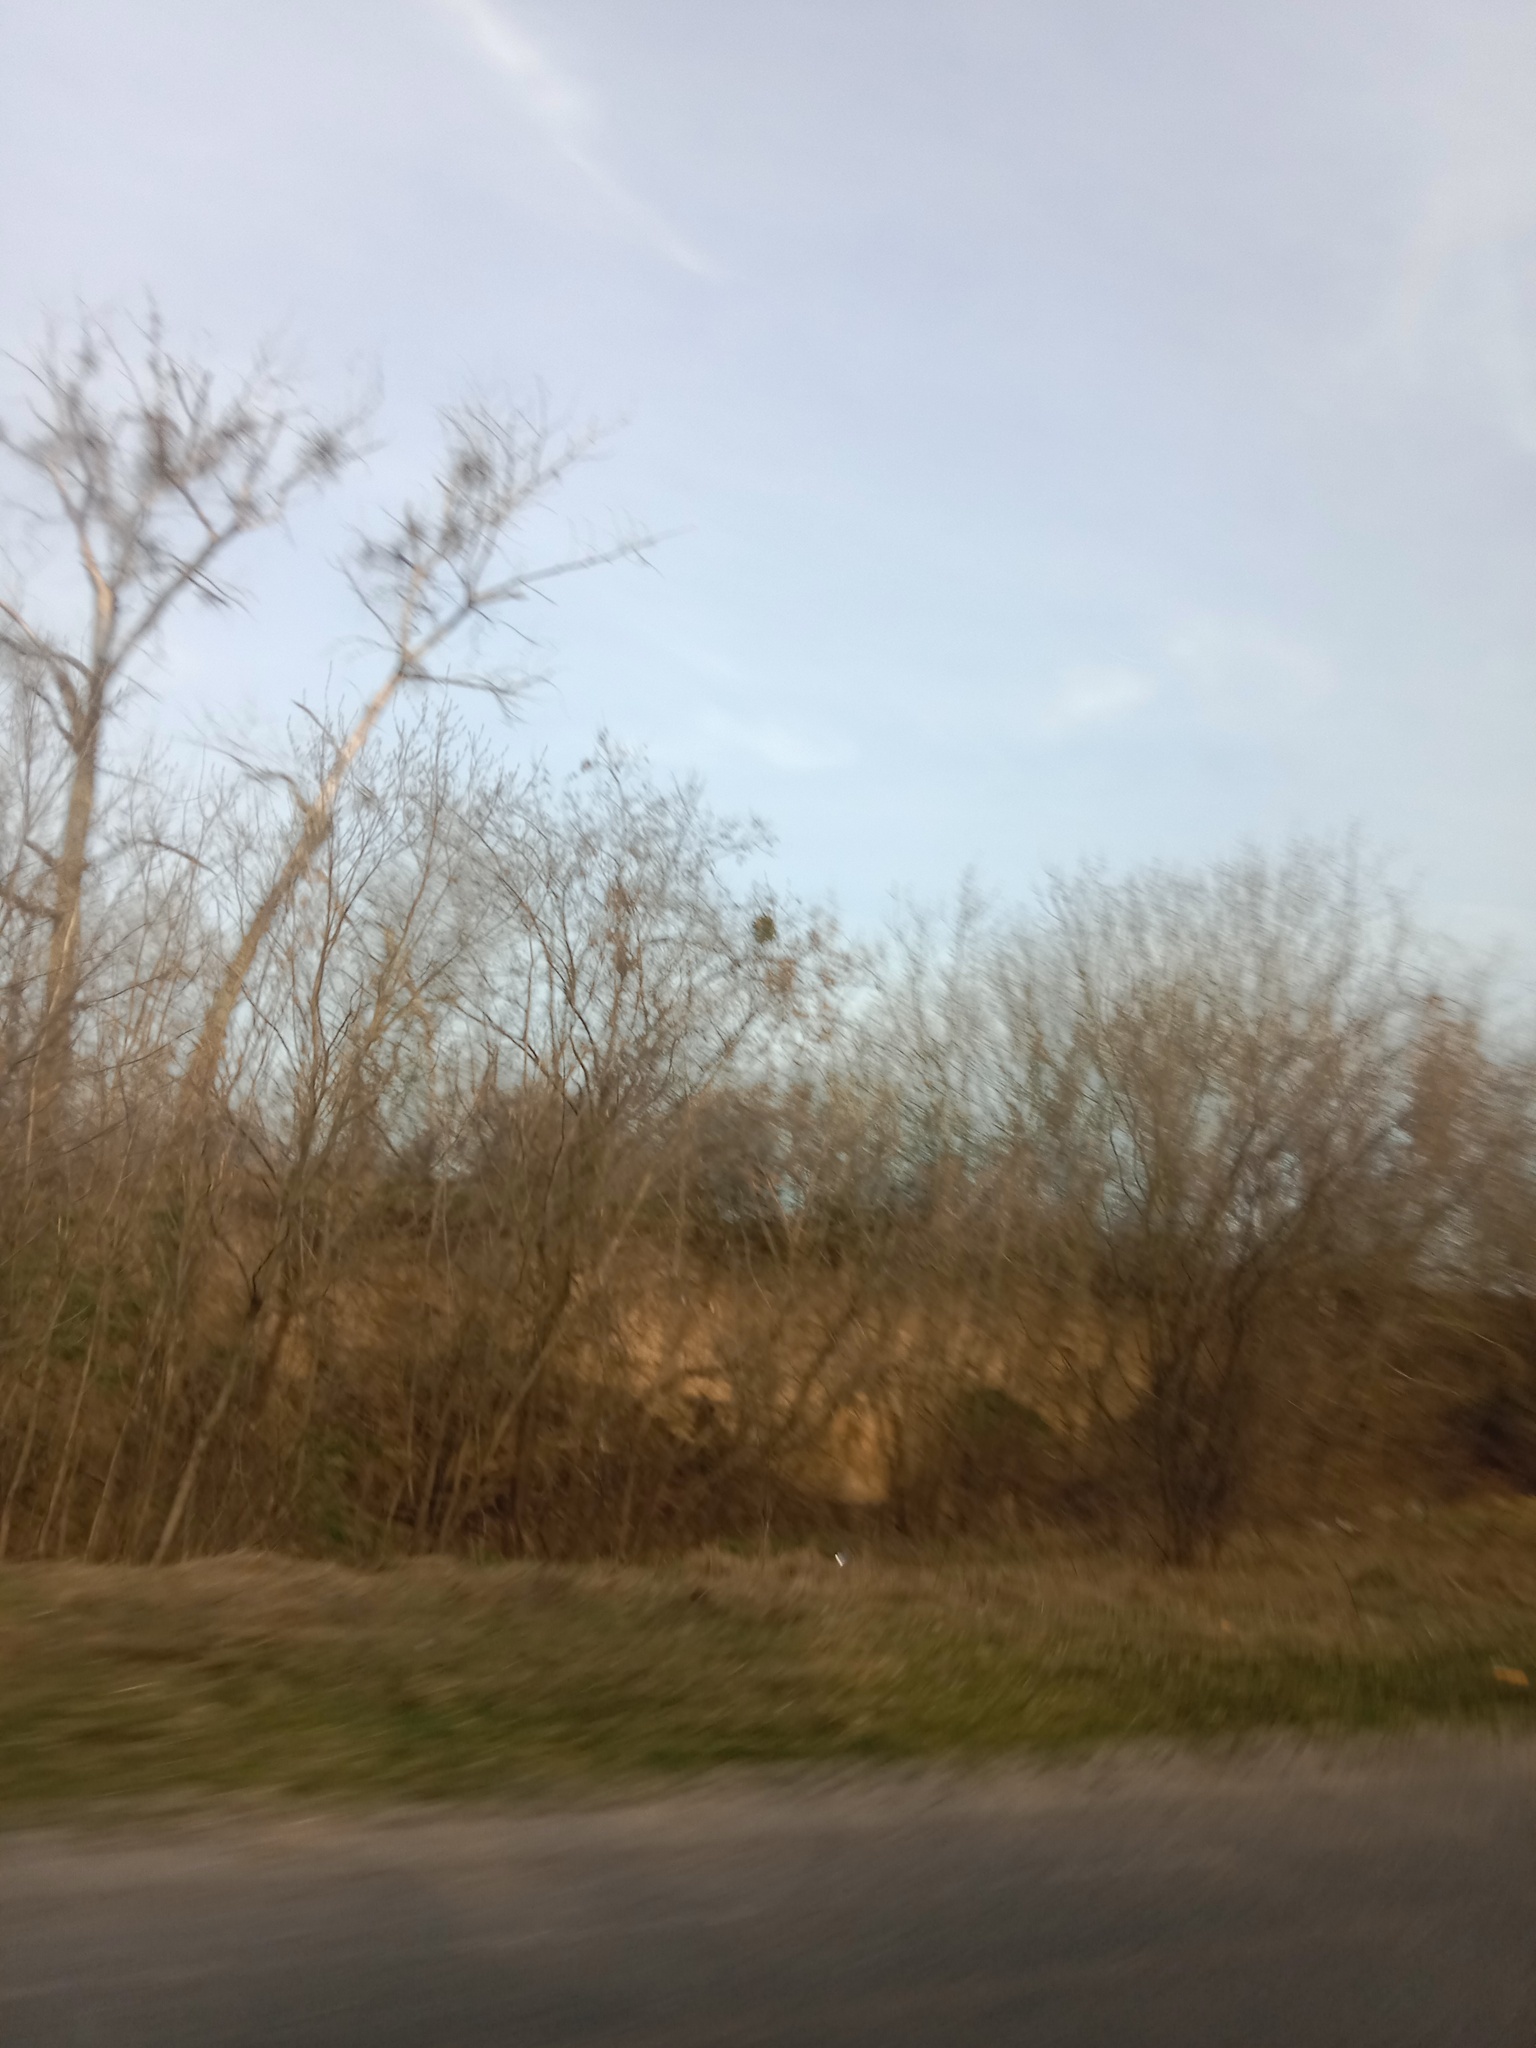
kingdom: Plantae
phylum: Tracheophyta
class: Magnoliopsida
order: Santalales
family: Viscaceae
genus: Viscum
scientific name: Viscum album
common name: Mistletoe
